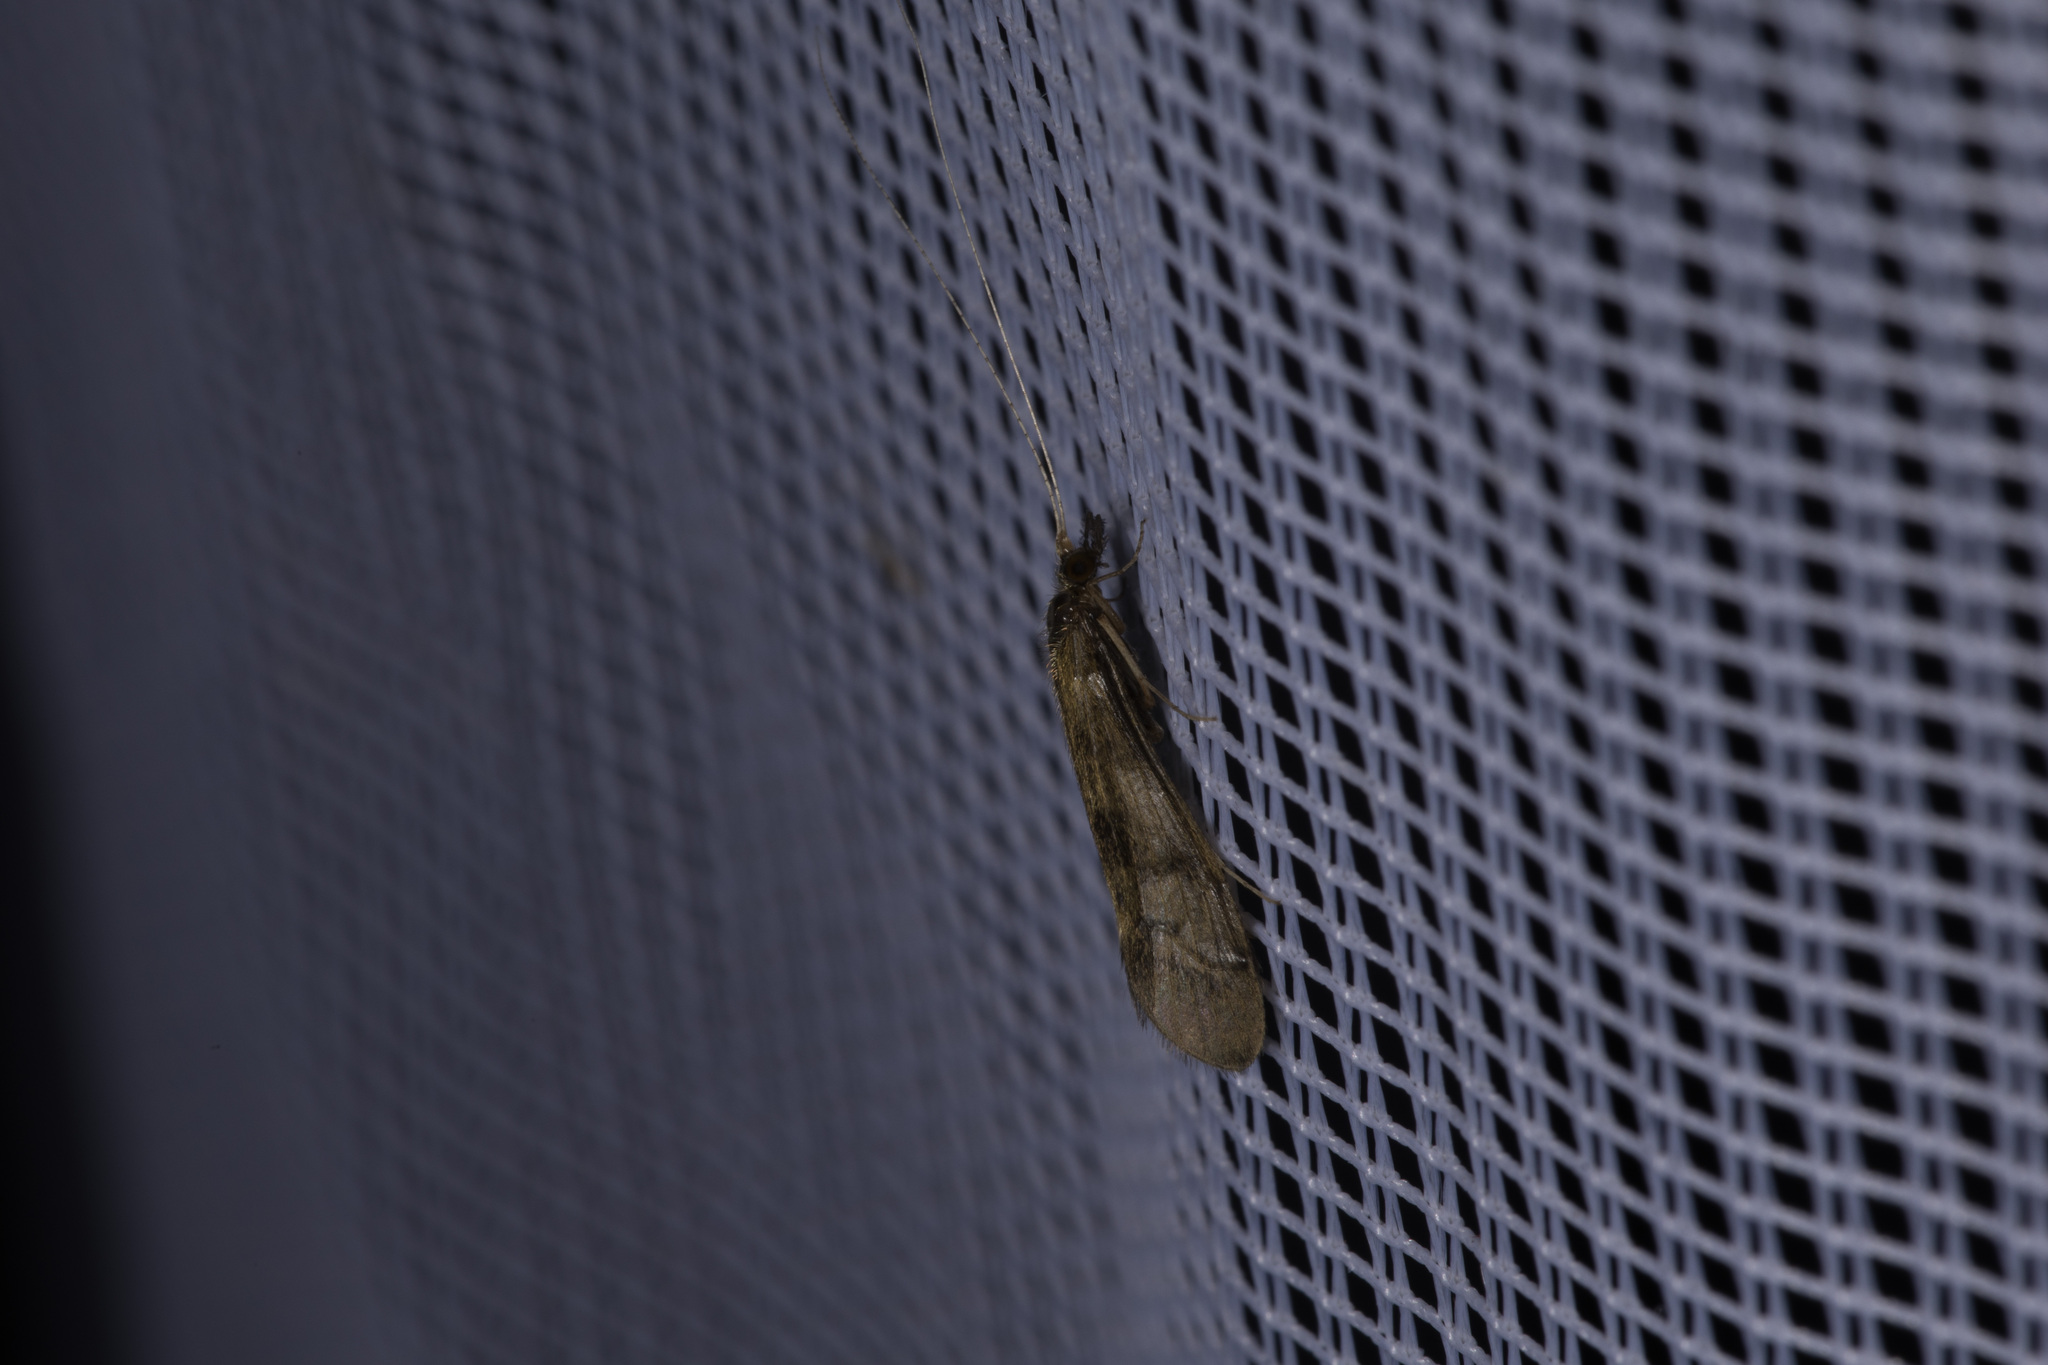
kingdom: Animalia
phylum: Arthropoda
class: Insecta
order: Trichoptera
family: Leptoceridae
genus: Mystacides
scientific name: Mystacides longicornis
